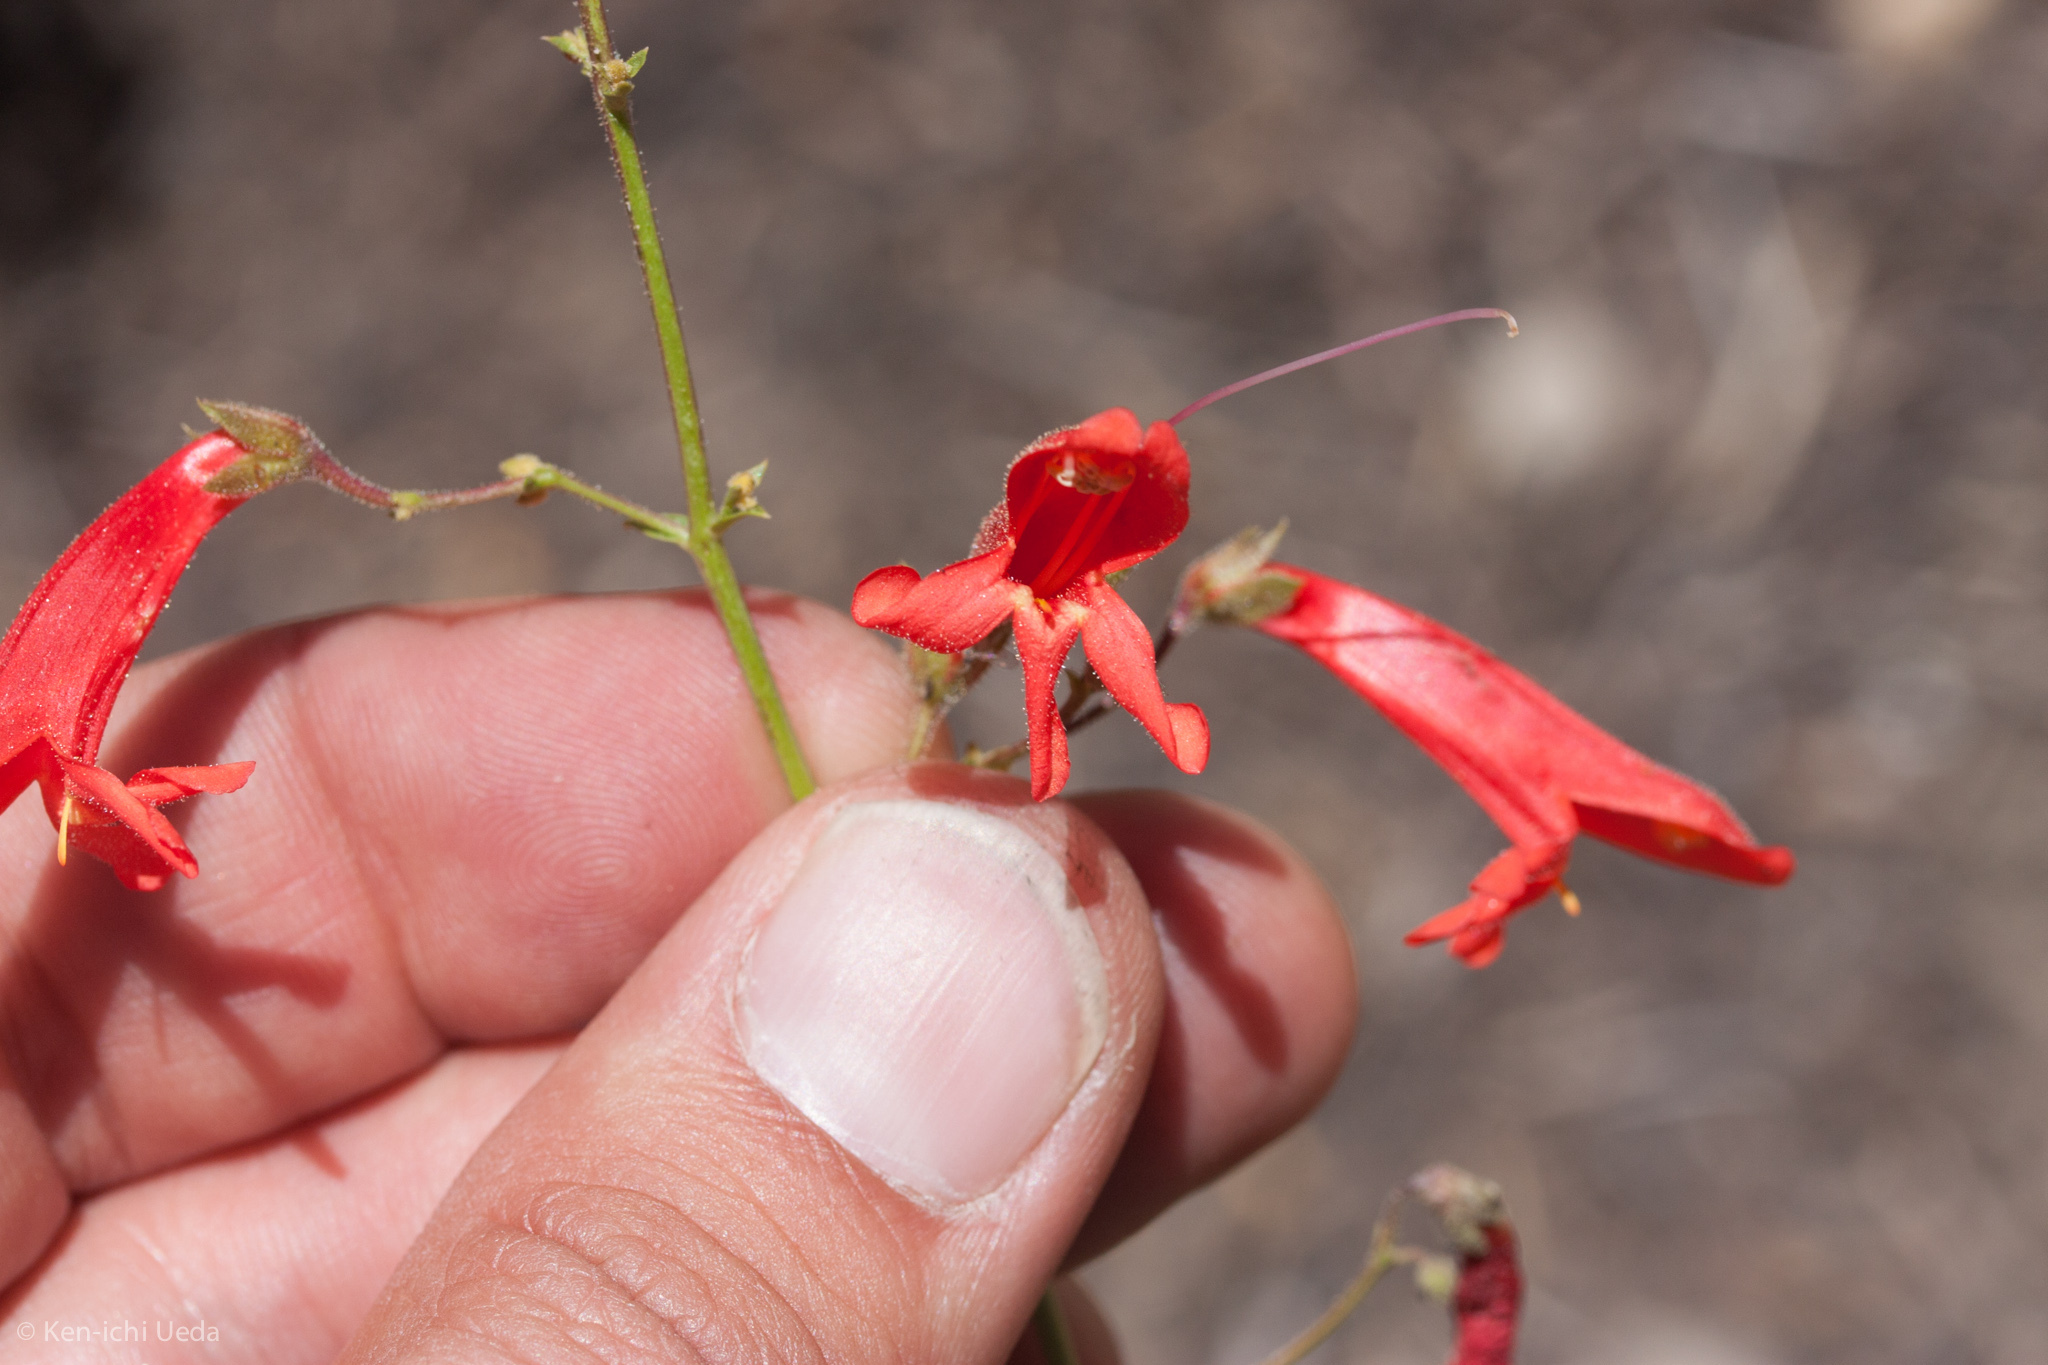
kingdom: Plantae
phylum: Tracheophyta
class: Magnoliopsida
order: Lamiales
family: Plantaginaceae
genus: Penstemon
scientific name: Penstemon rostriflorus
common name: Bridges's penstemon
